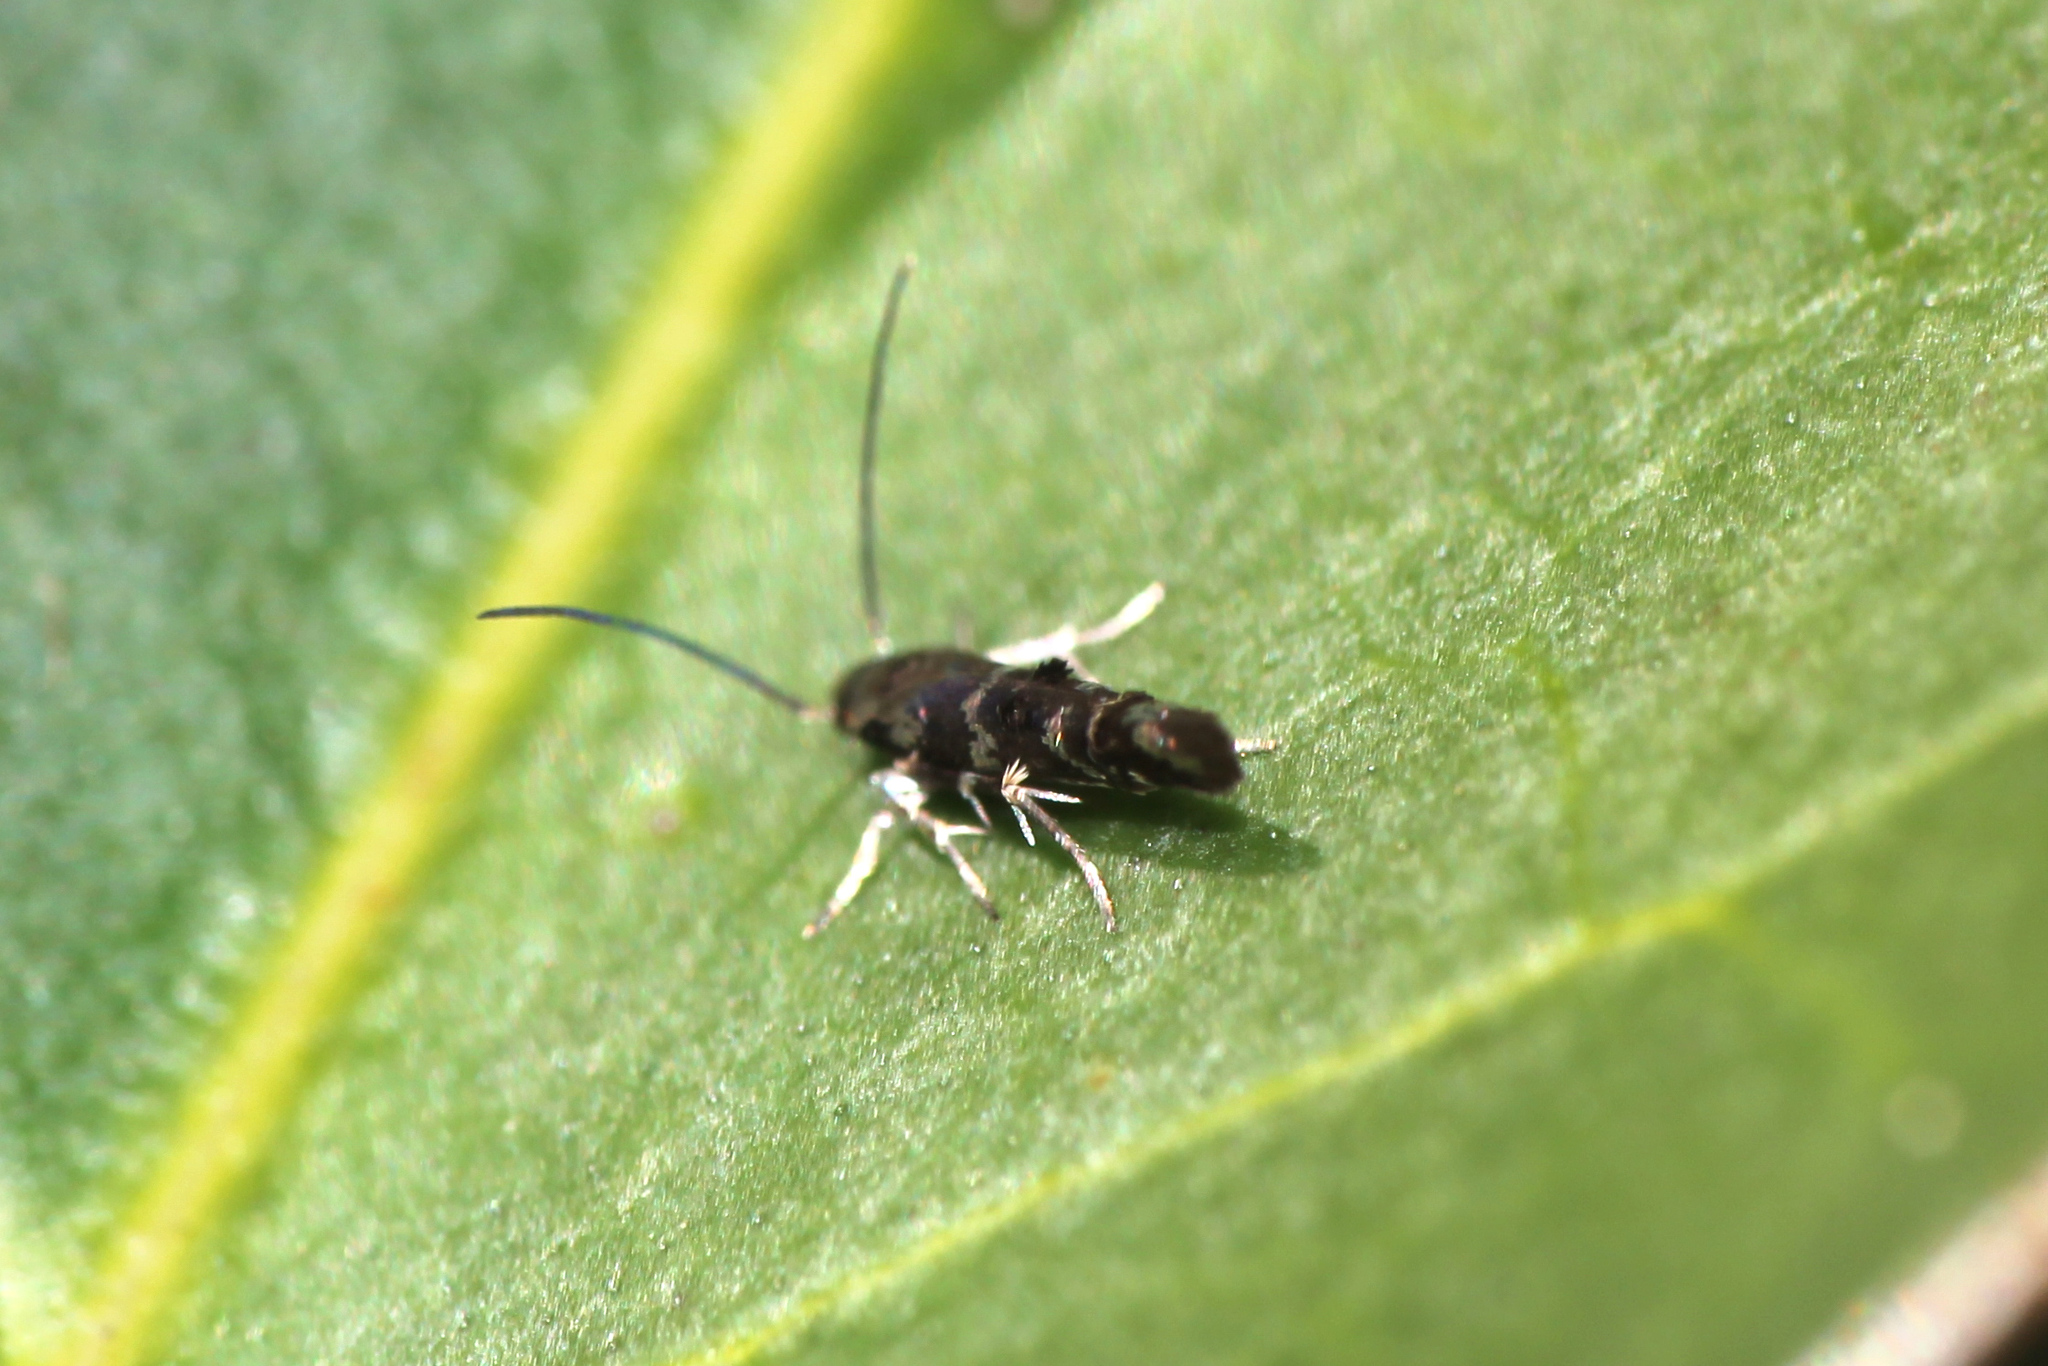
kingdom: Animalia
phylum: Arthropoda
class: Insecta
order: Lepidoptera
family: Momphidae
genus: Zapyrastra
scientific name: Zapyrastra calliphana
